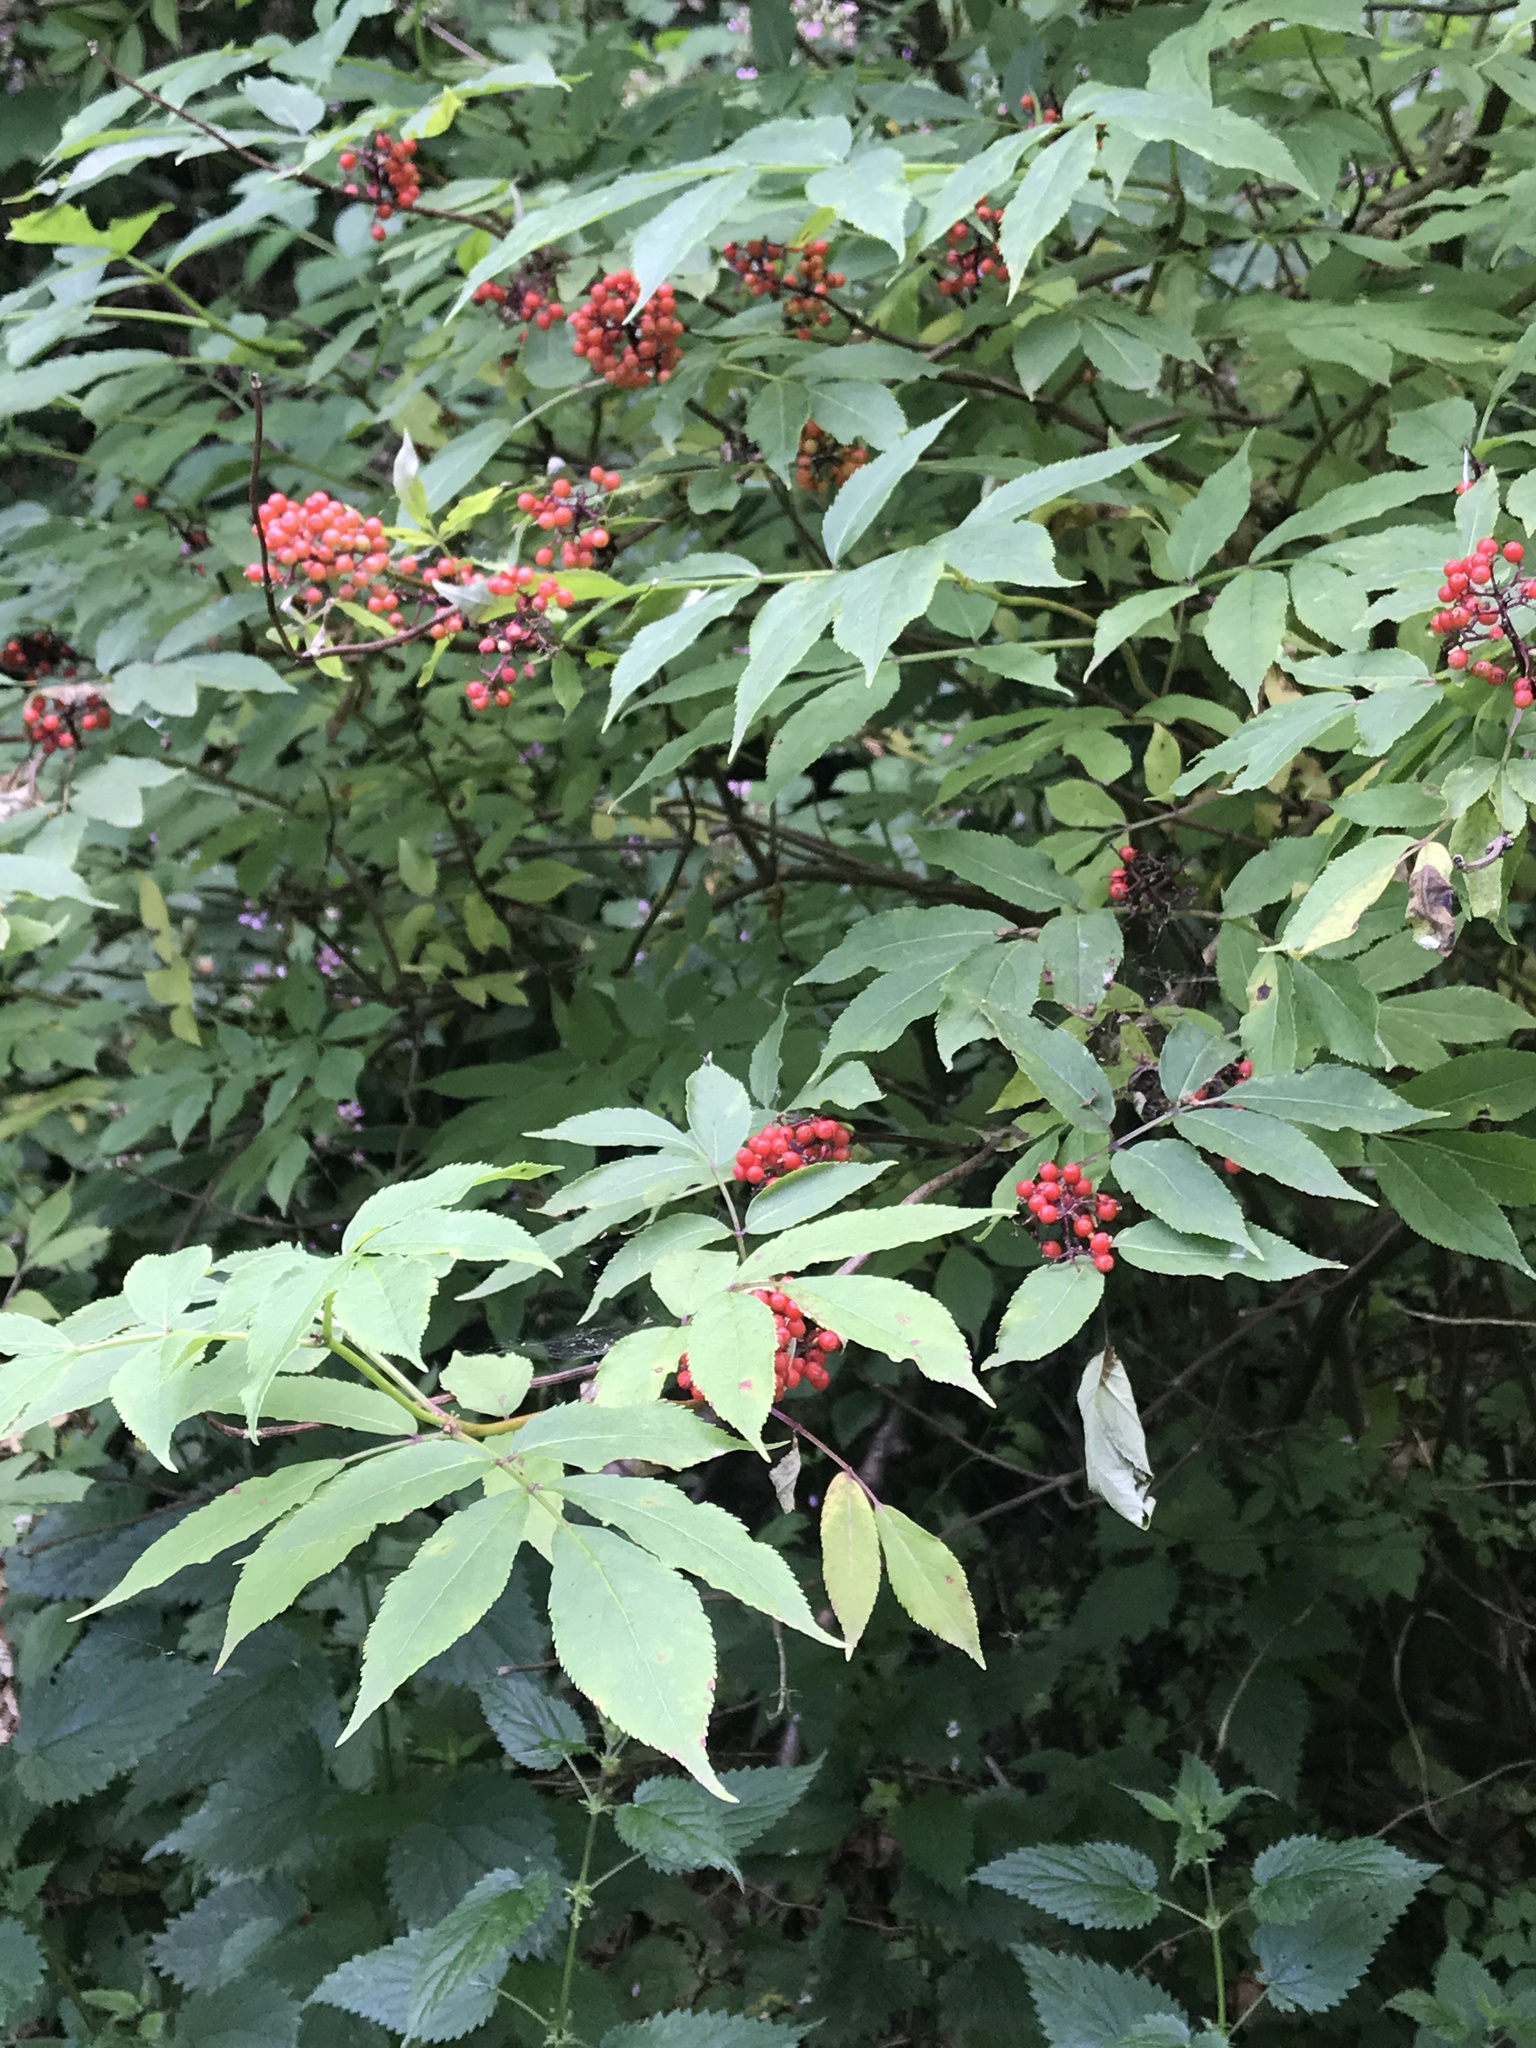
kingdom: Plantae
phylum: Tracheophyta
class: Magnoliopsida
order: Dipsacales
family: Viburnaceae
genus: Sambucus
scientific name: Sambucus racemosa
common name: Red-berried elder
